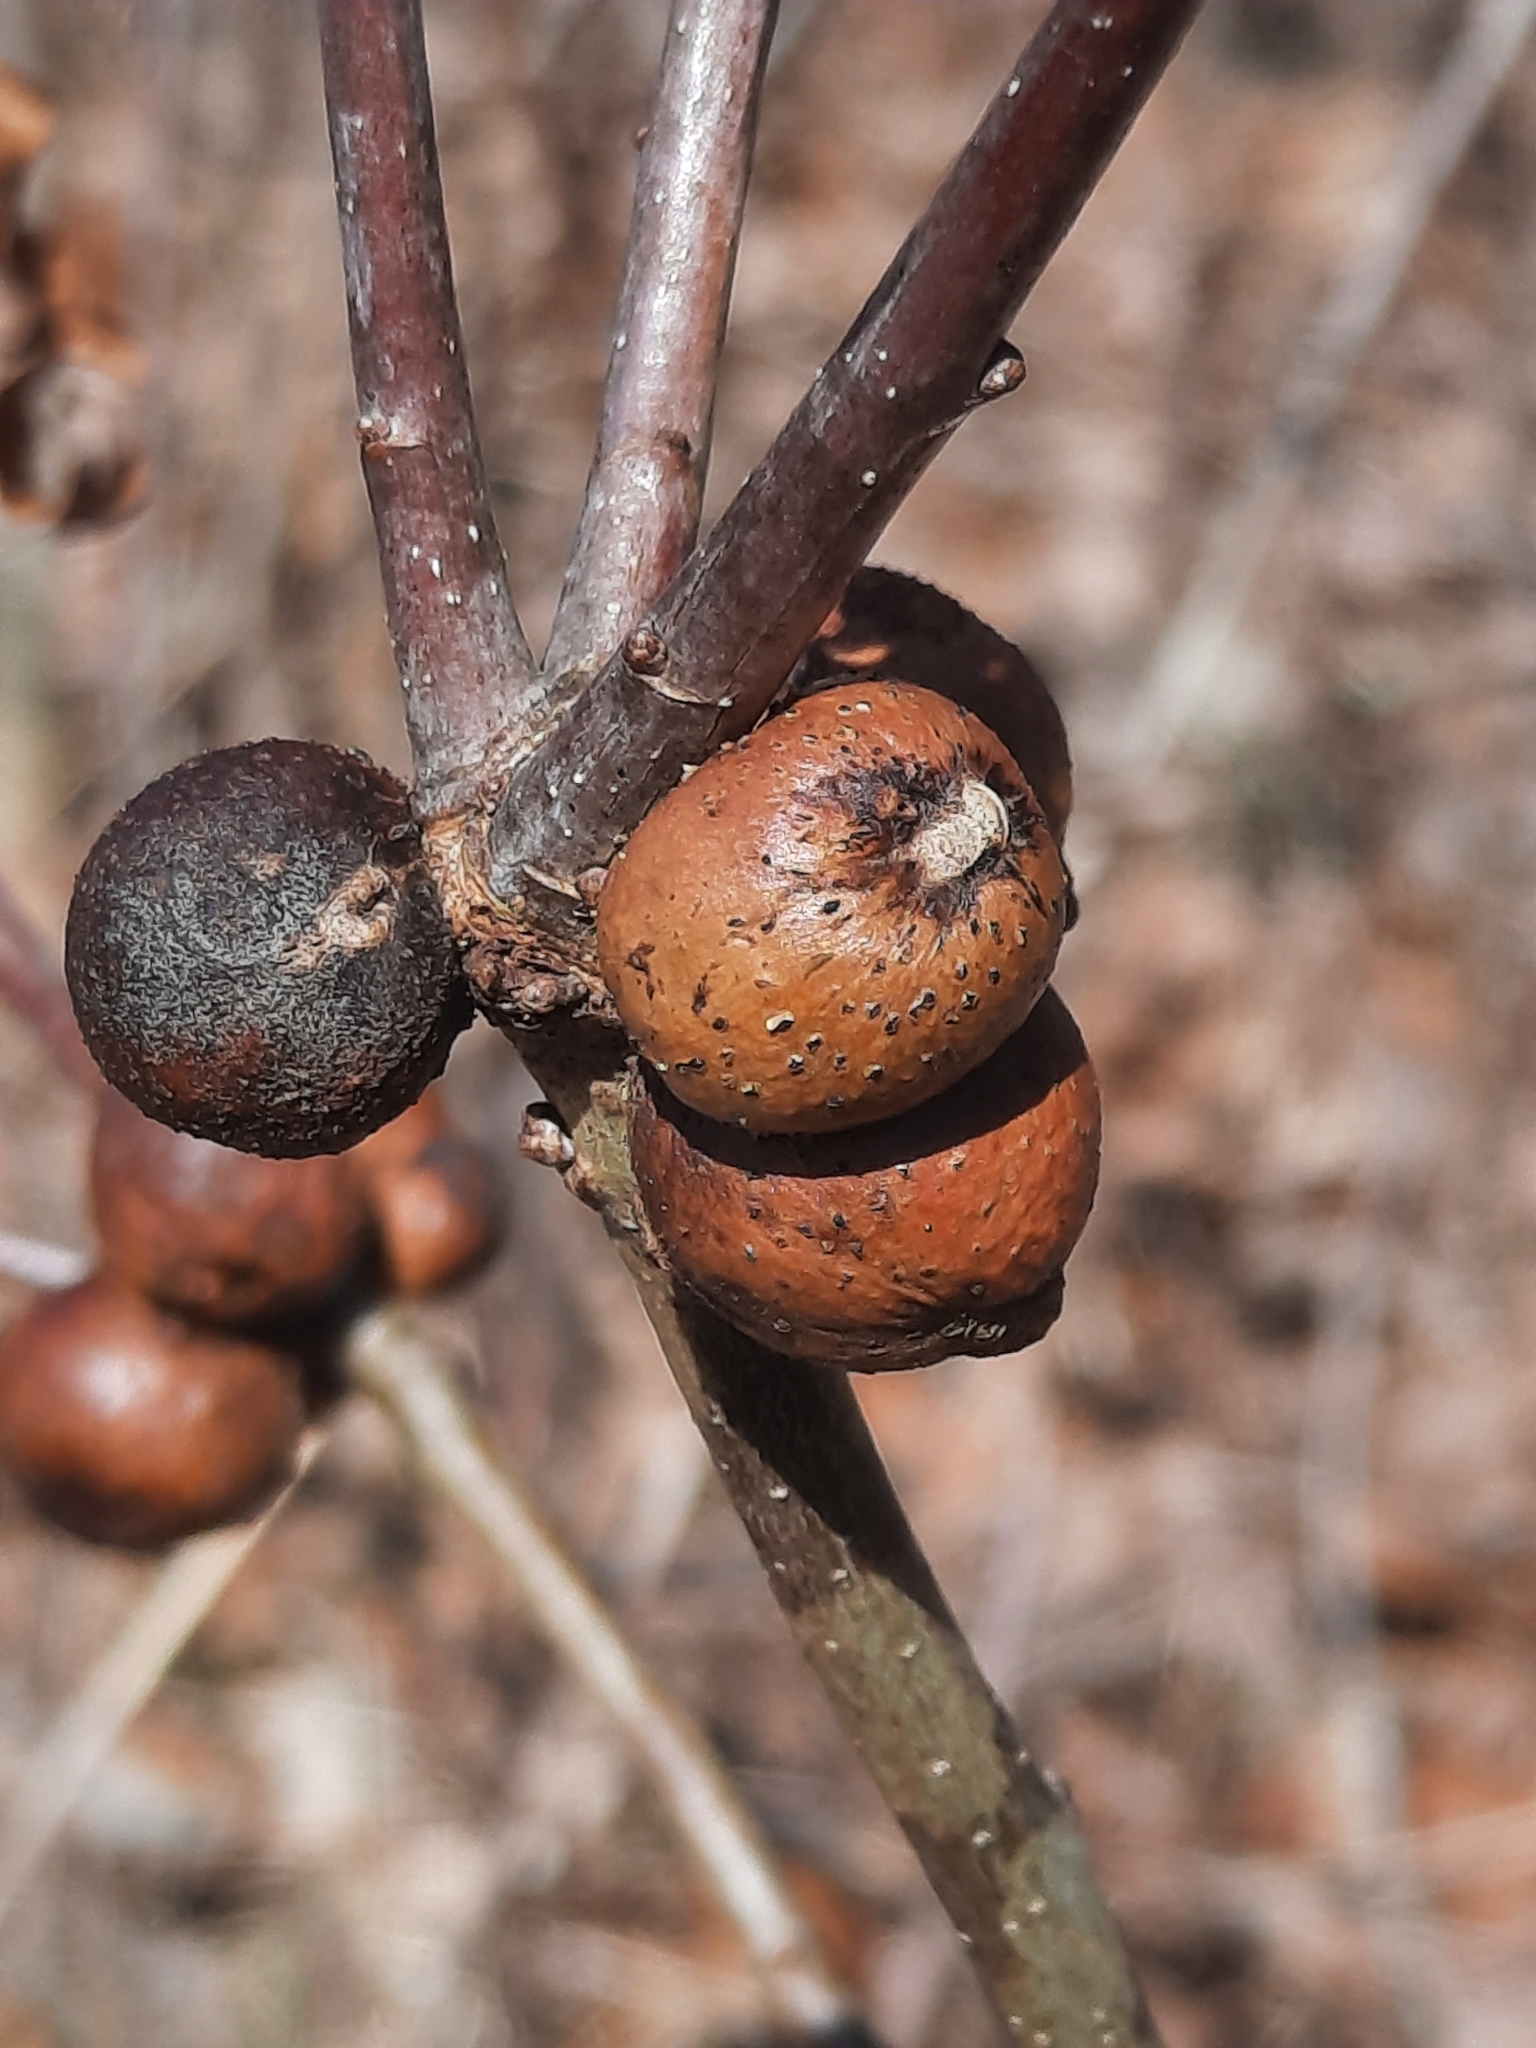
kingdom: Animalia
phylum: Arthropoda
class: Insecta
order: Hymenoptera
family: Cynipidae
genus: Disholcaspis
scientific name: Disholcaspis quercusglobulus
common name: Round bullet gall wasp
